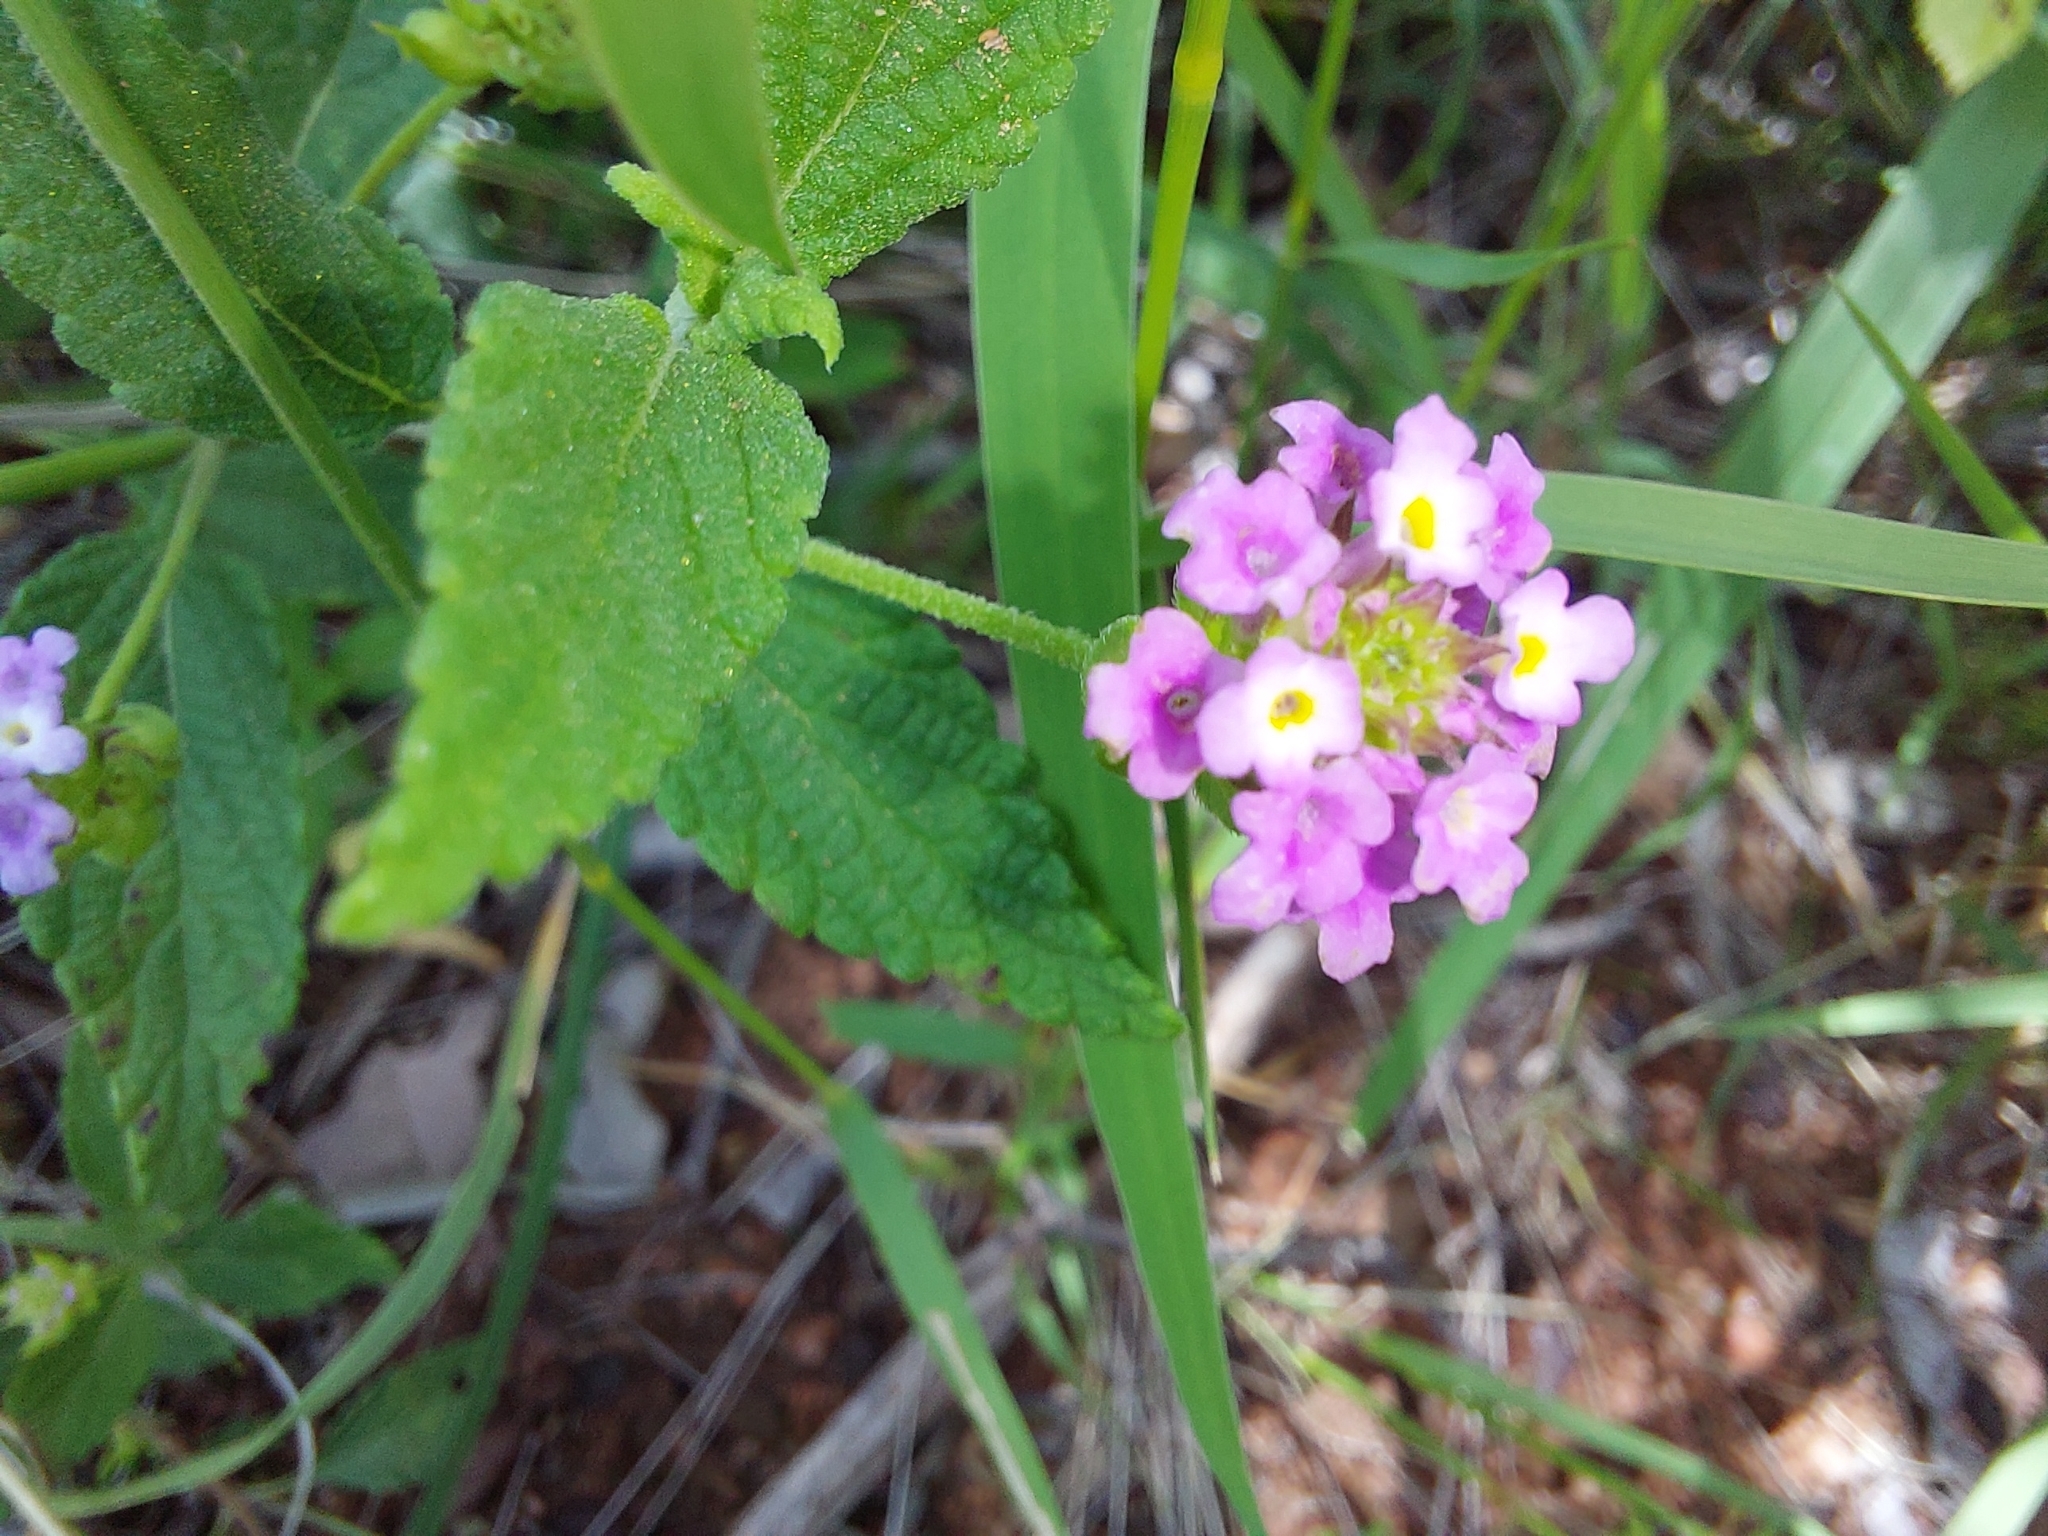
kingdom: Plantae
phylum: Tracheophyta
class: Magnoliopsida
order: Lamiales
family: Verbenaceae
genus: Lantana
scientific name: Lantana rugosa
